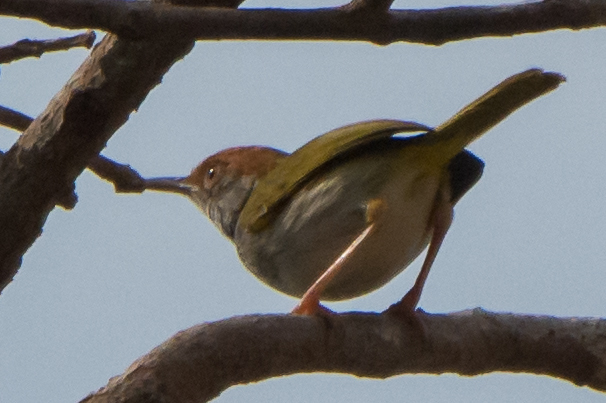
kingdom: Animalia
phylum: Chordata
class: Aves
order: Passeriformes
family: Cisticolidae
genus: Orthotomus
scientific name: Orthotomus atrogularis
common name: Dark-necked tailorbird
